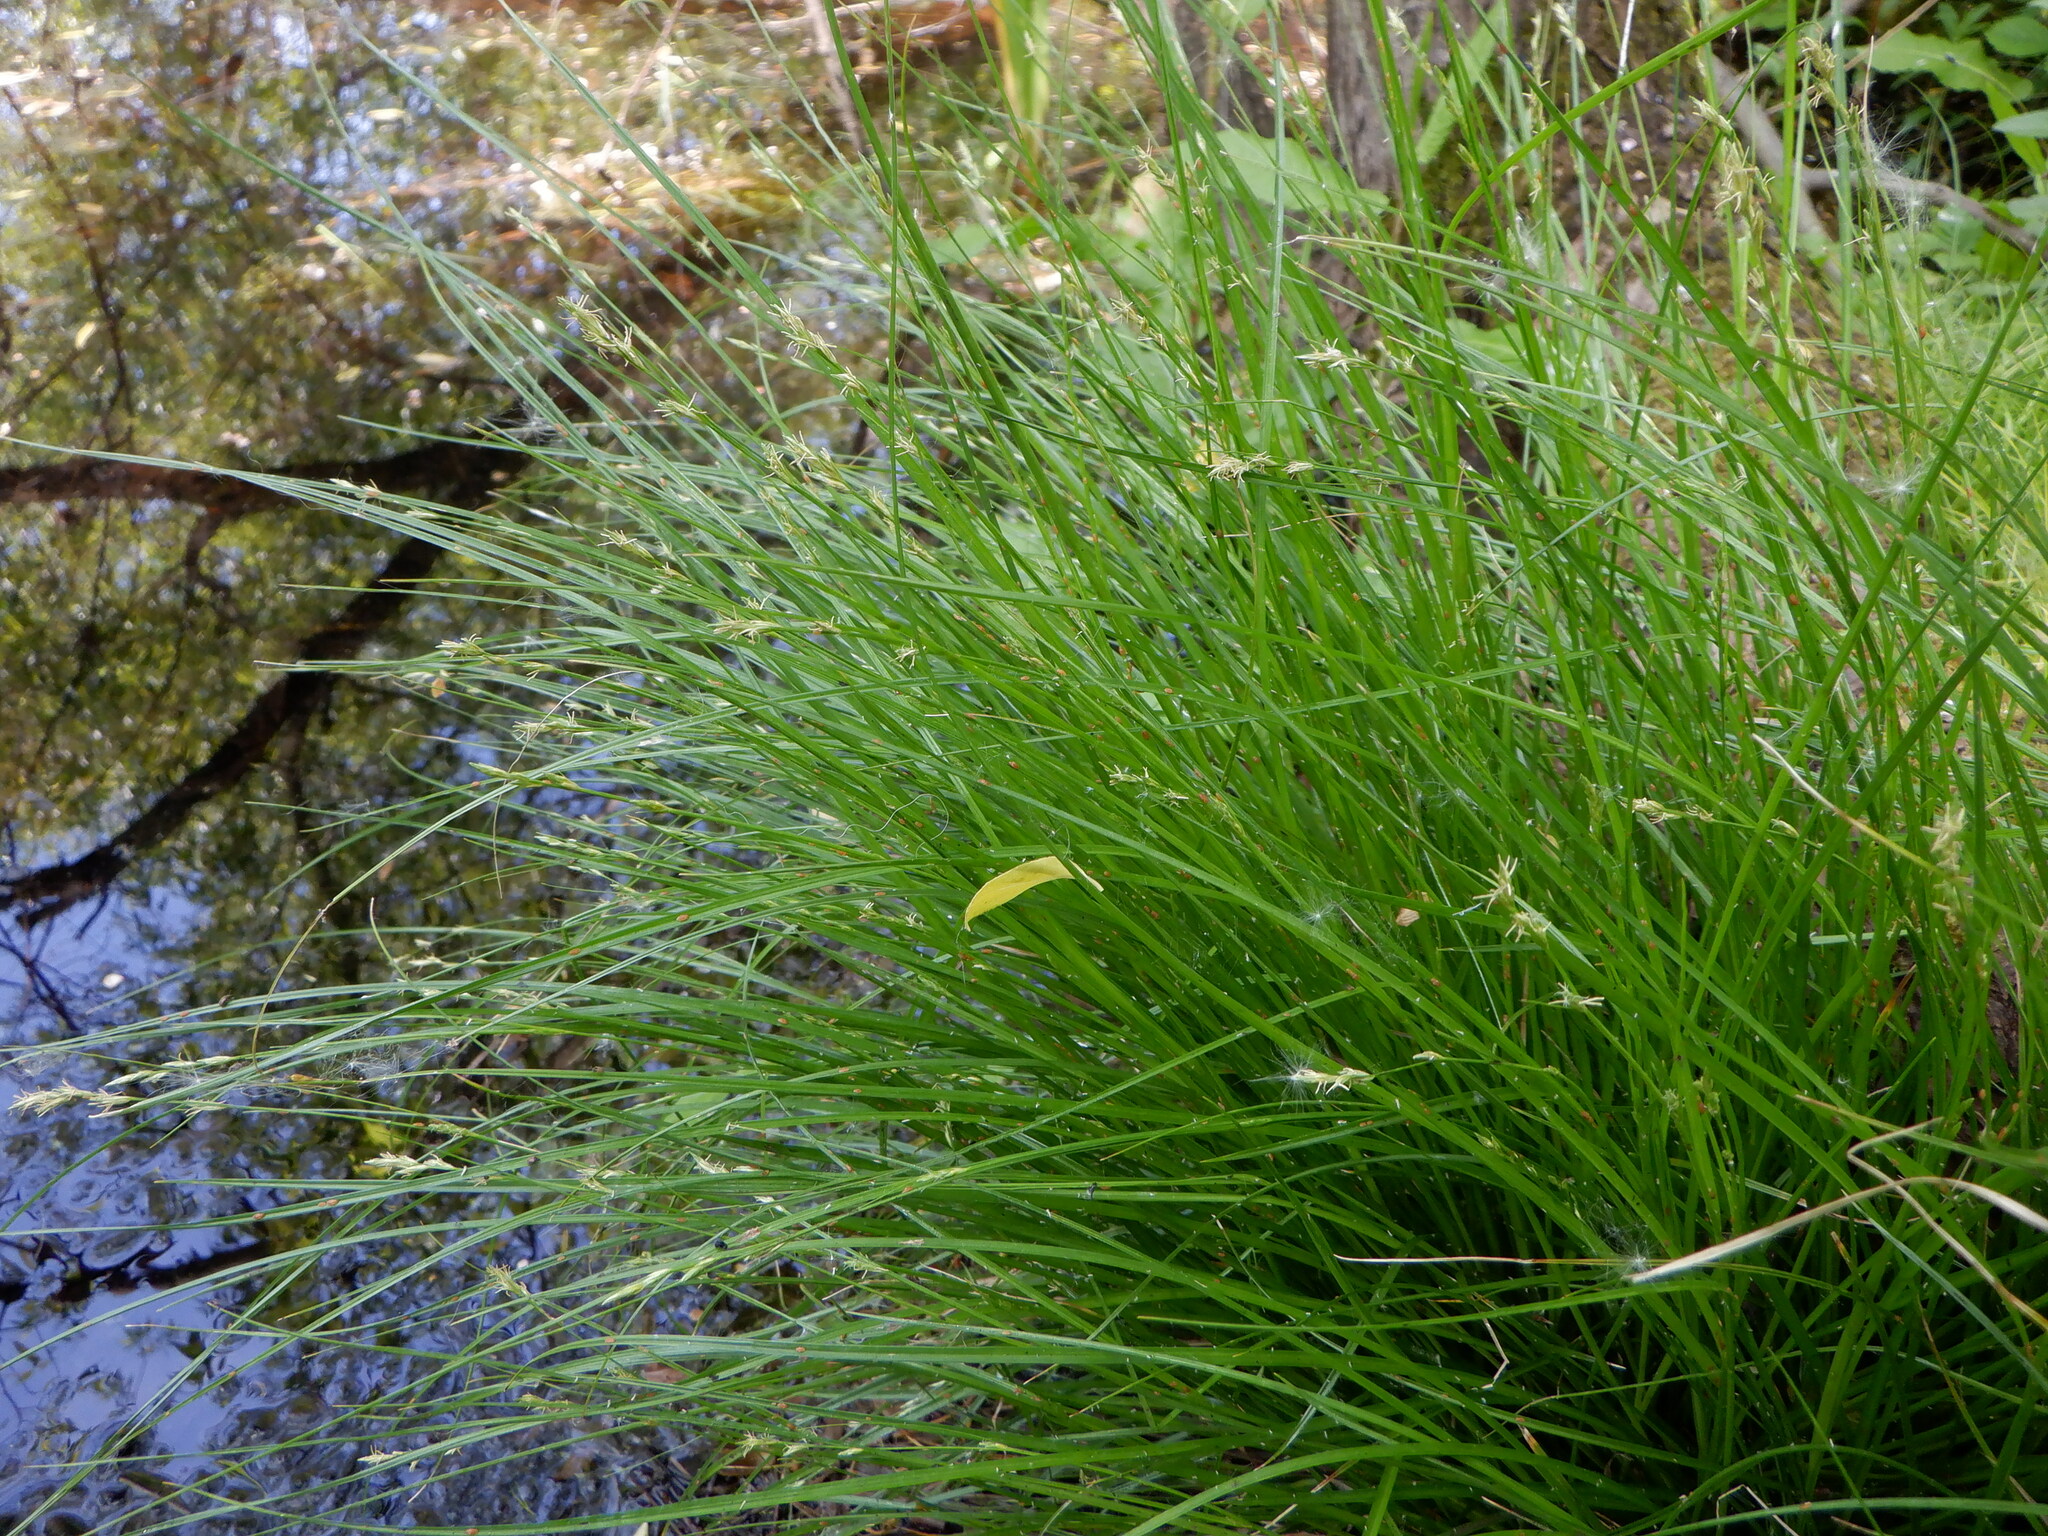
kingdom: Plantae
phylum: Tracheophyta
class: Liliopsida
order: Poales
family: Cyperaceae
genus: Carex
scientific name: Carex remota
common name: Remote sedge
